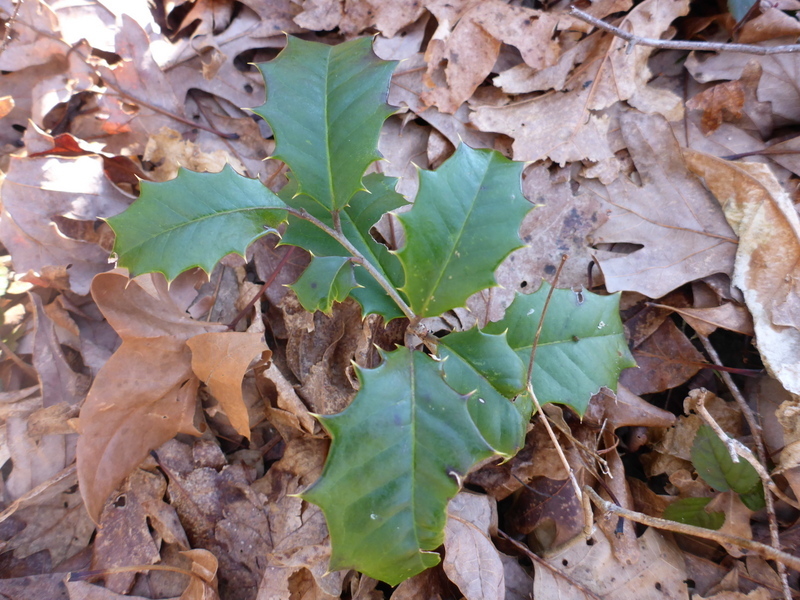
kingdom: Plantae
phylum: Tracheophyta
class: Magnoliopsida
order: Aquifoliales
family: Aquifoliaceae
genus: Ilex
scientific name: Ilex opaca
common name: American holly
